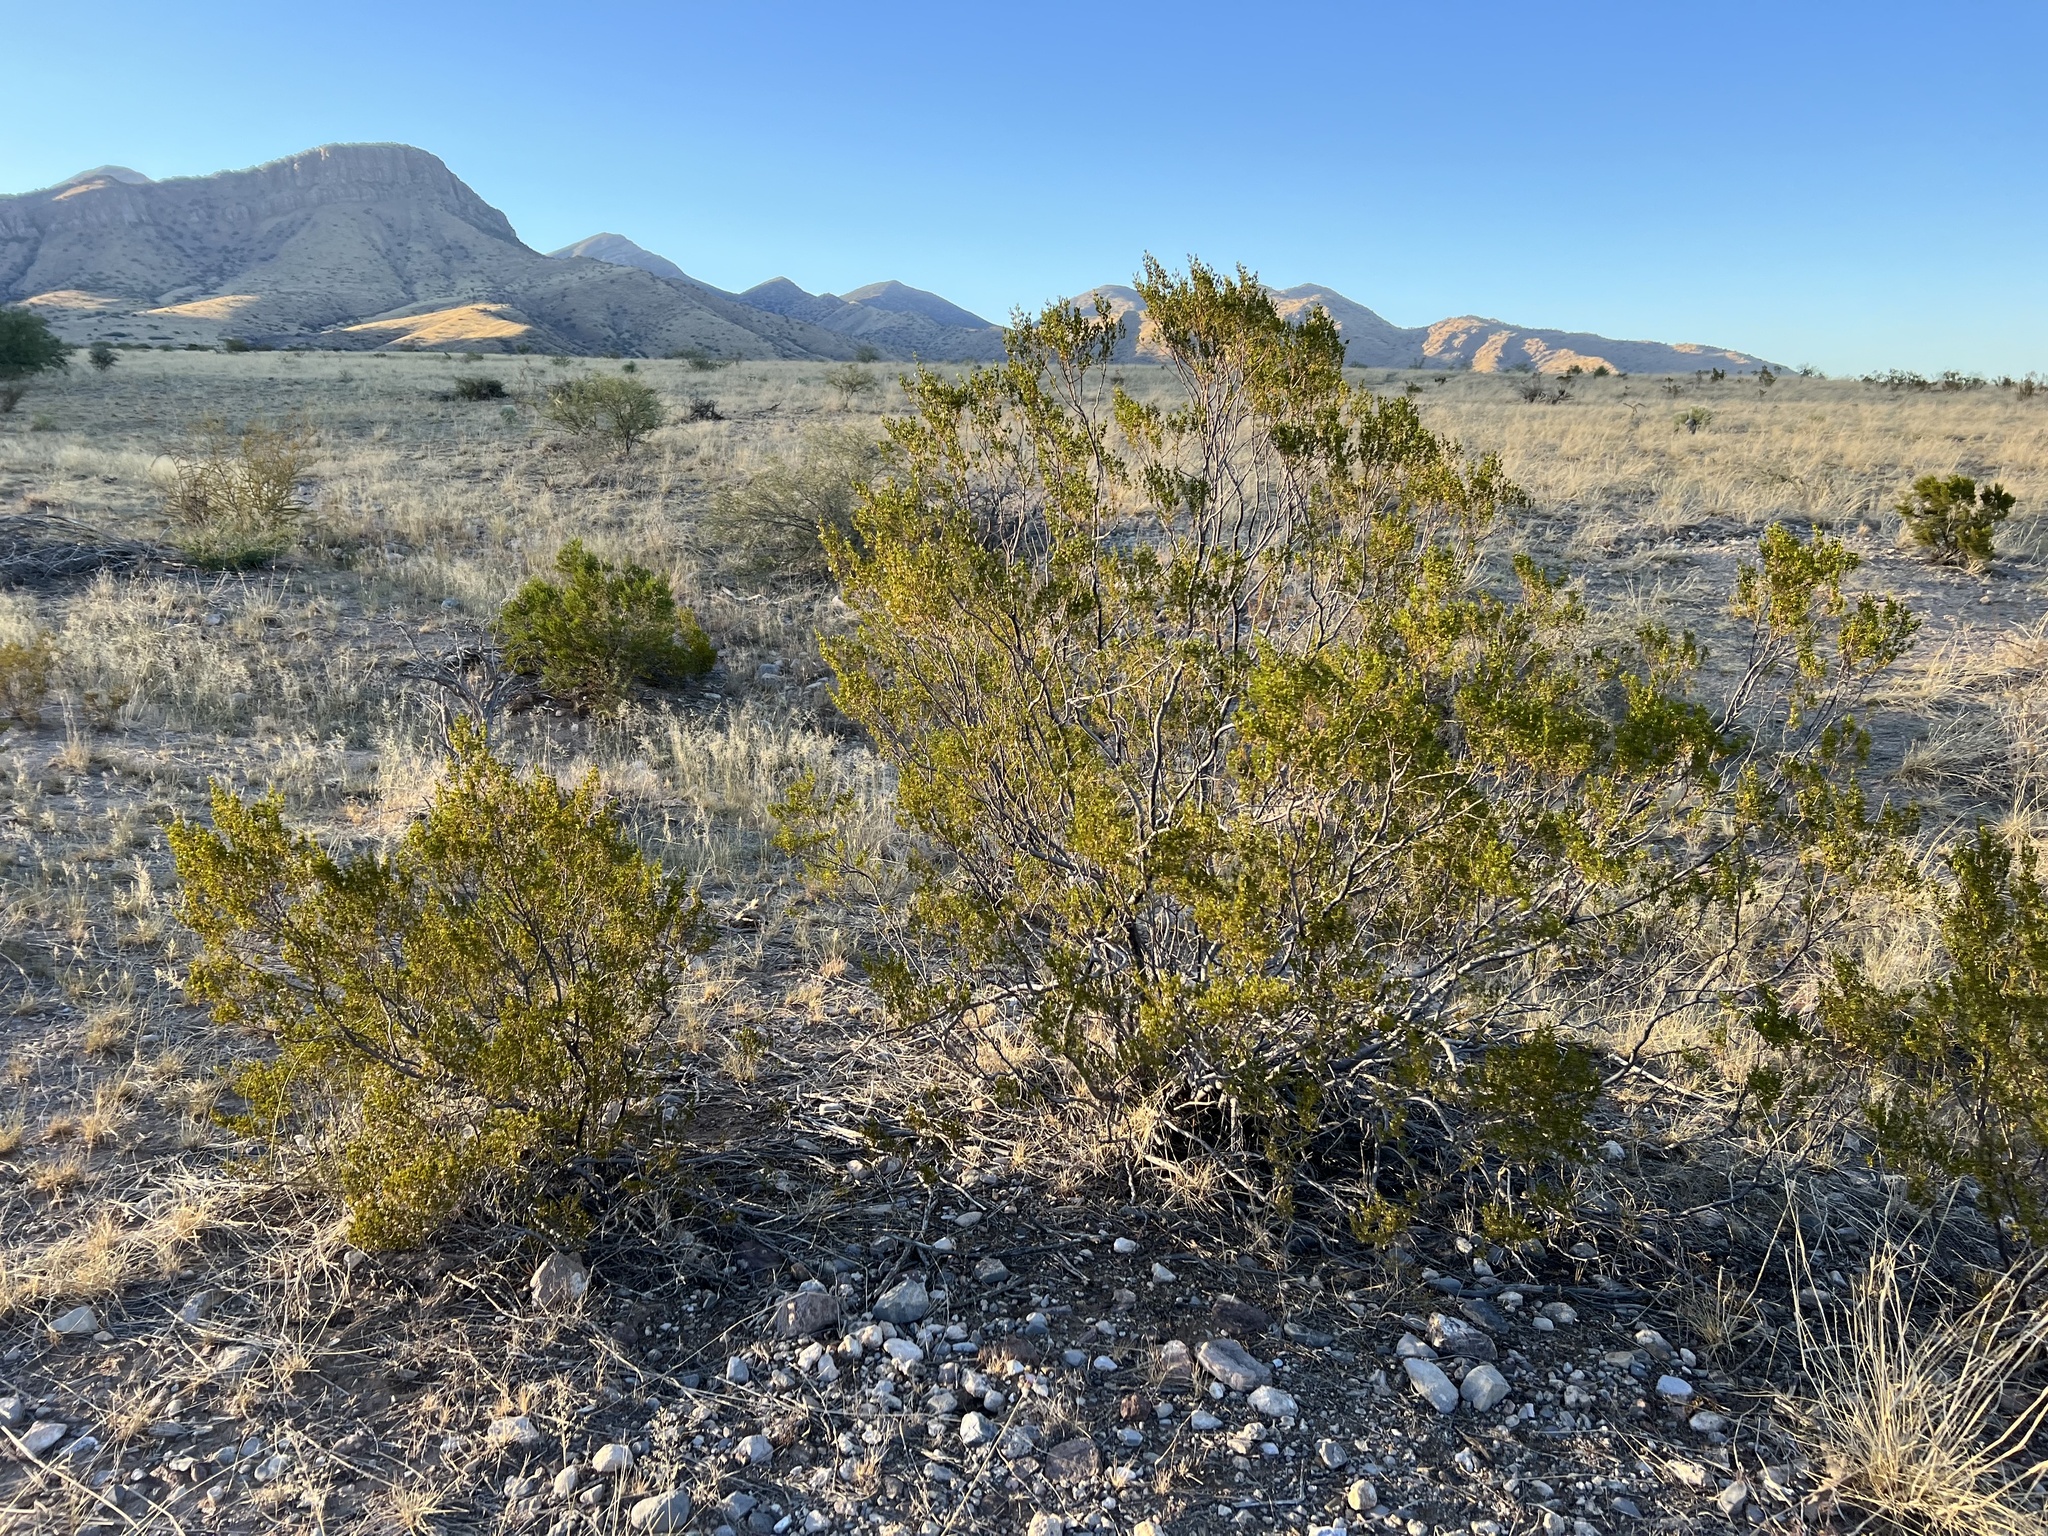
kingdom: Plantae
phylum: Tracheophyta
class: Magnoliopsida
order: Zygophyllales
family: Zygophyllaceae
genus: Larrea
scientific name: Larrea tridentata
